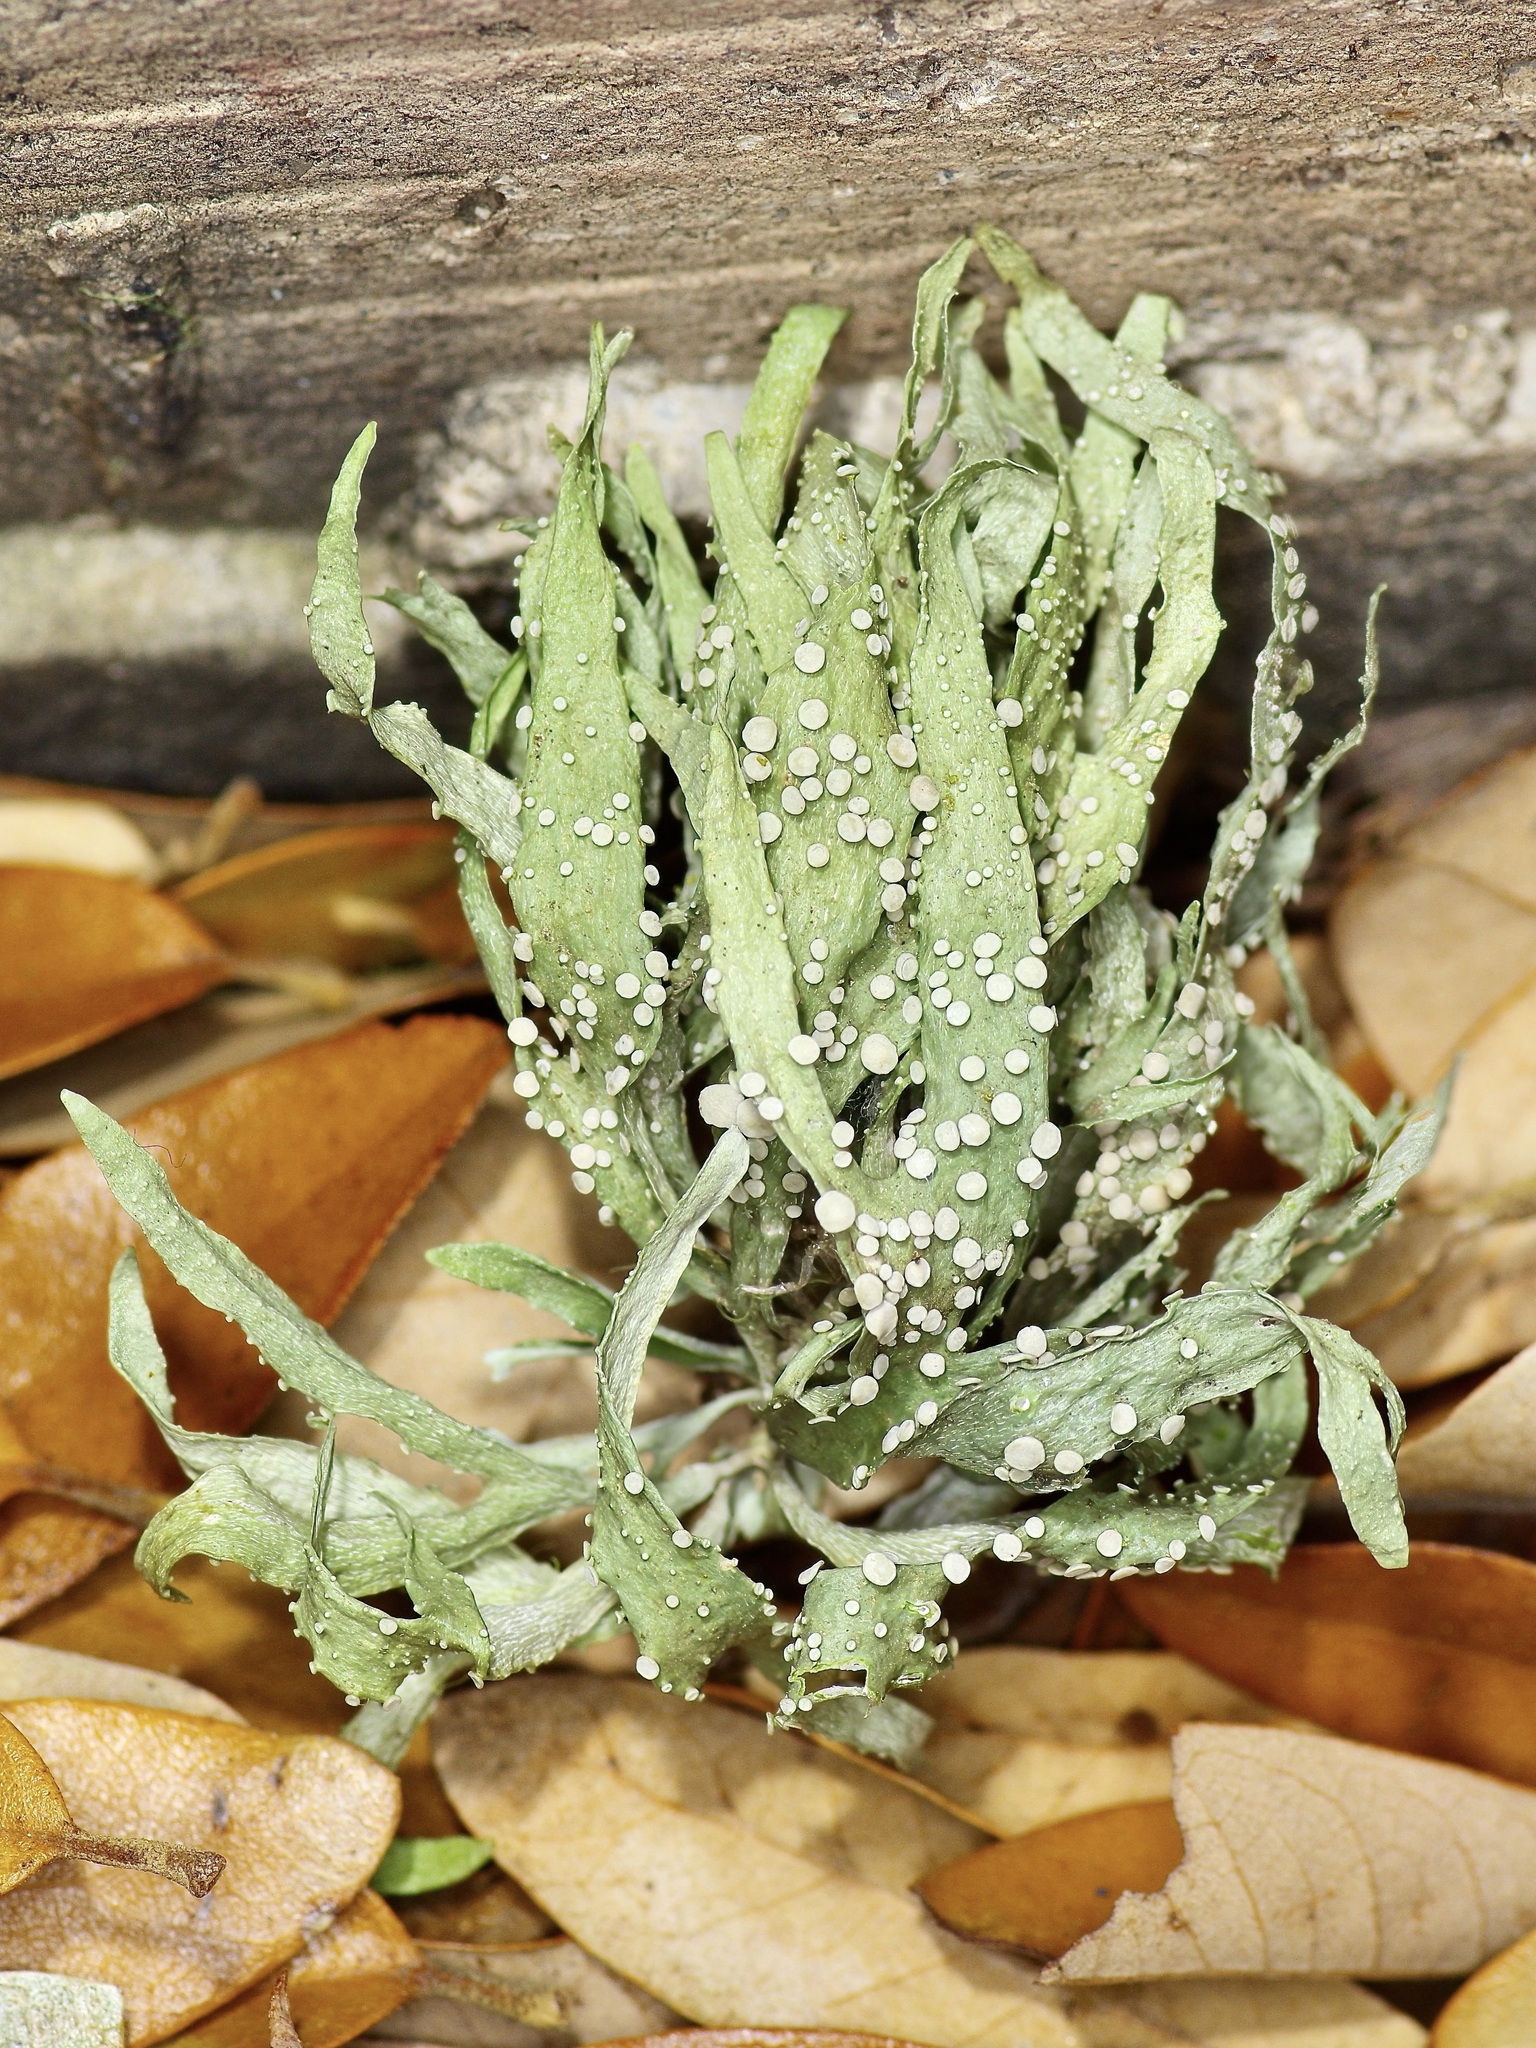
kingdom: Fungi
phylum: Ascomycota
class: Lecanoromycetes
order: Lecanorales
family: Ramalinaceae
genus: Ramalina
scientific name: Ramalina celastri
